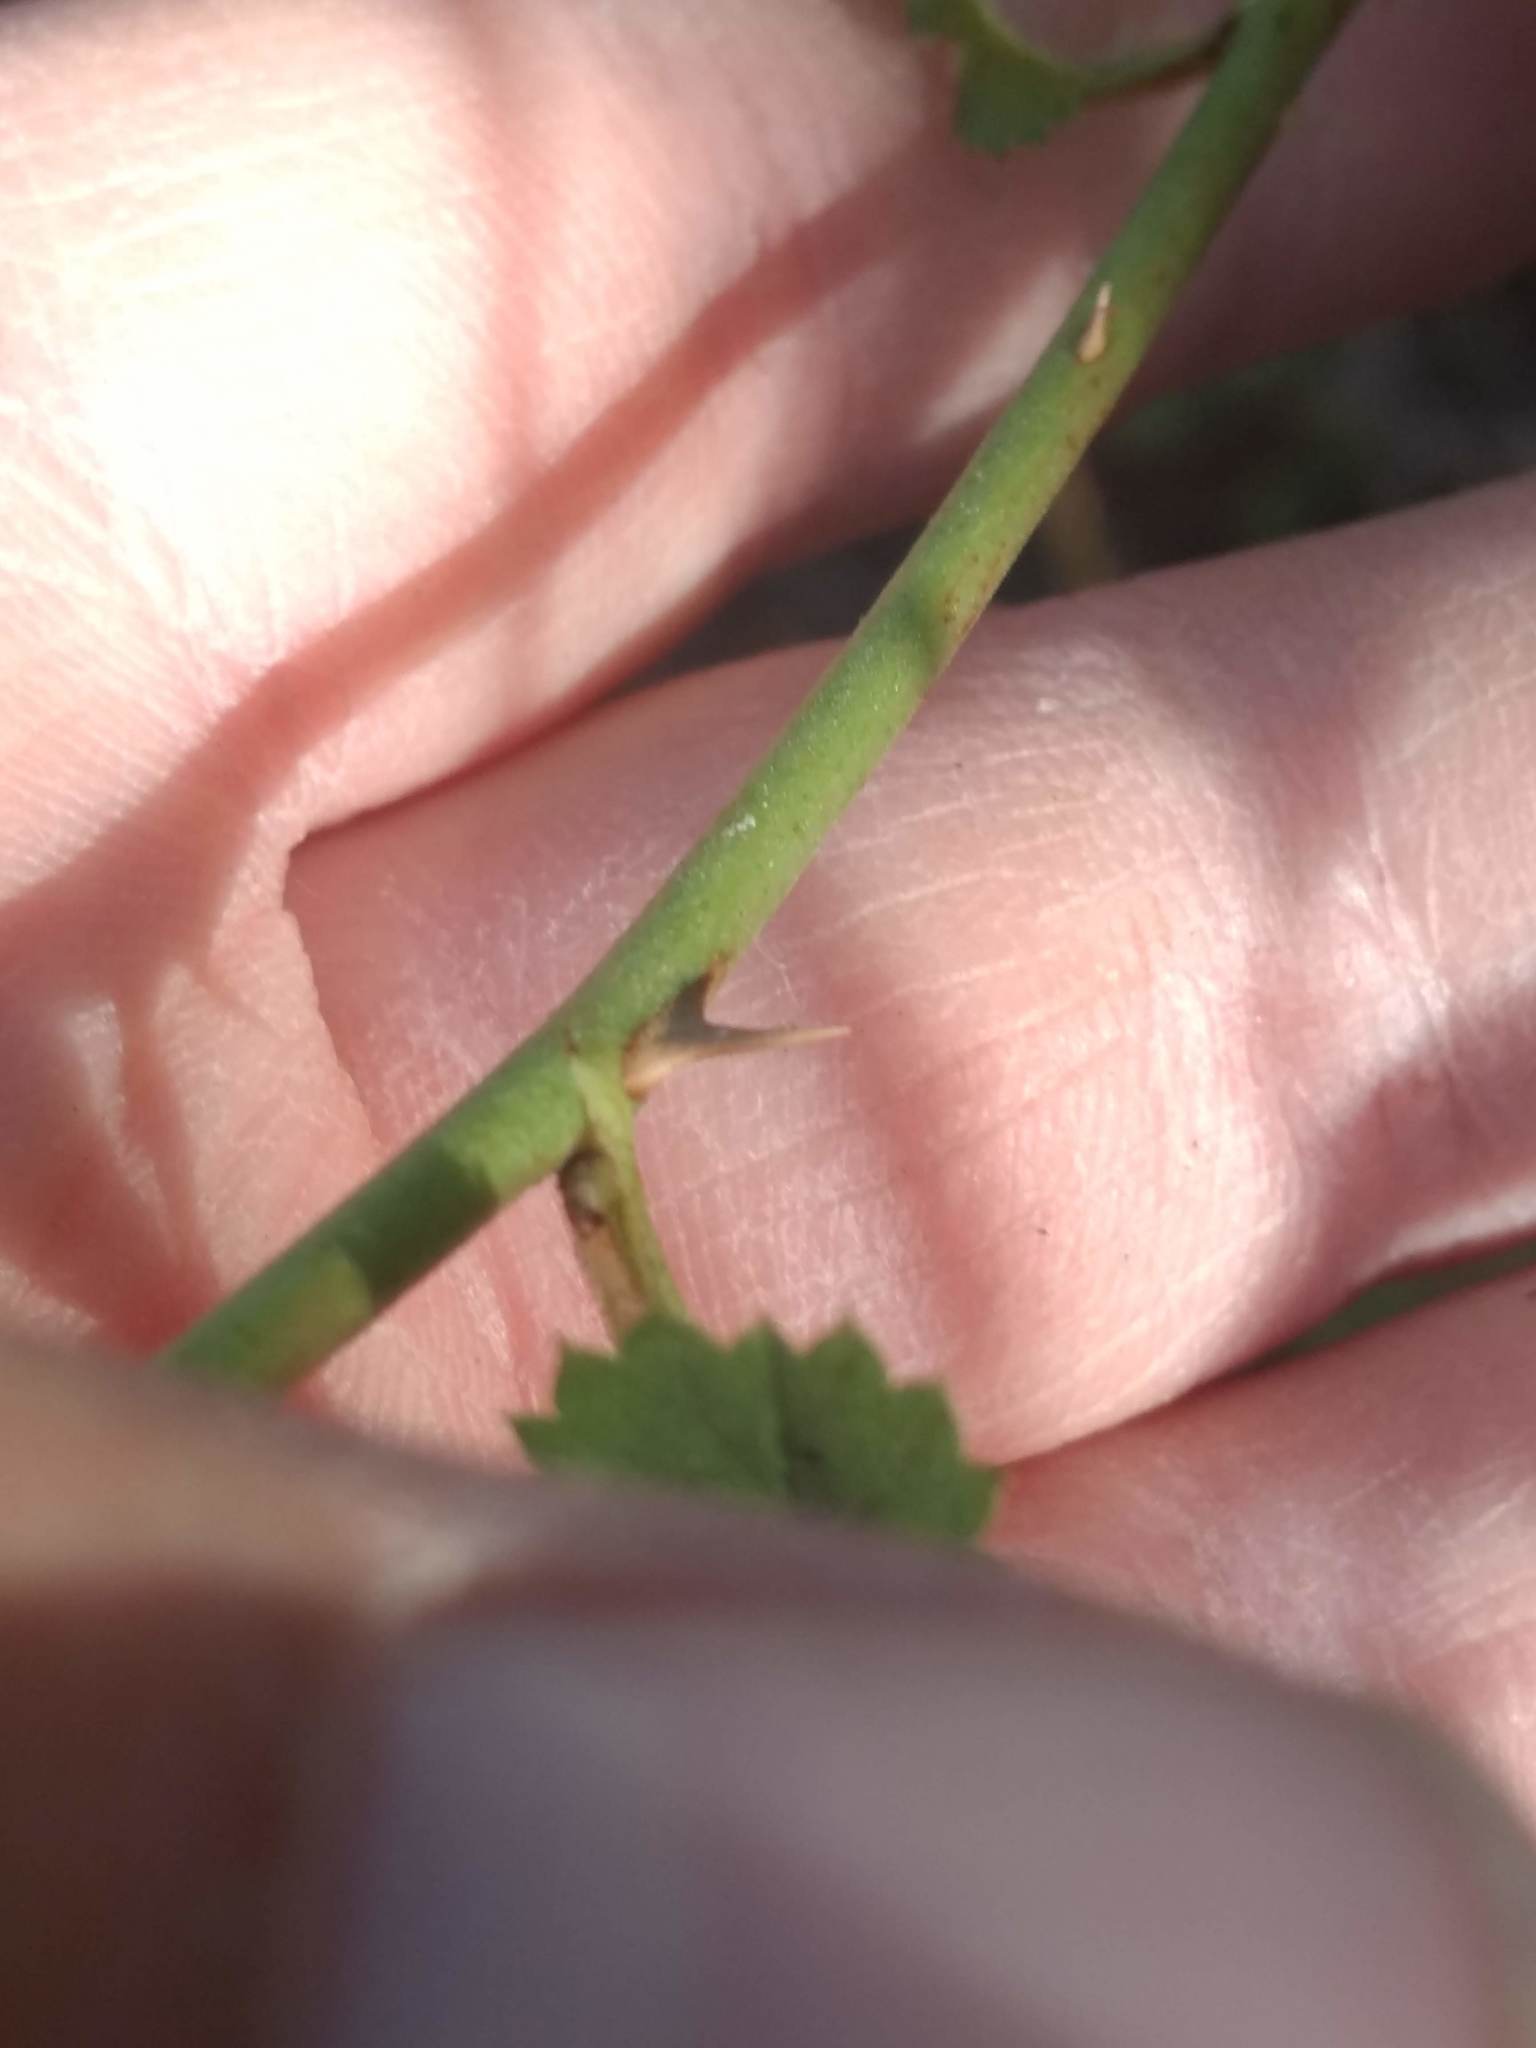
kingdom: Plantae
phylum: Tracheophyta
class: Magnoliopsida
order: Rosales
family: Rosaceae
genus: Rosa
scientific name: Rosa californica
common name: California rose
